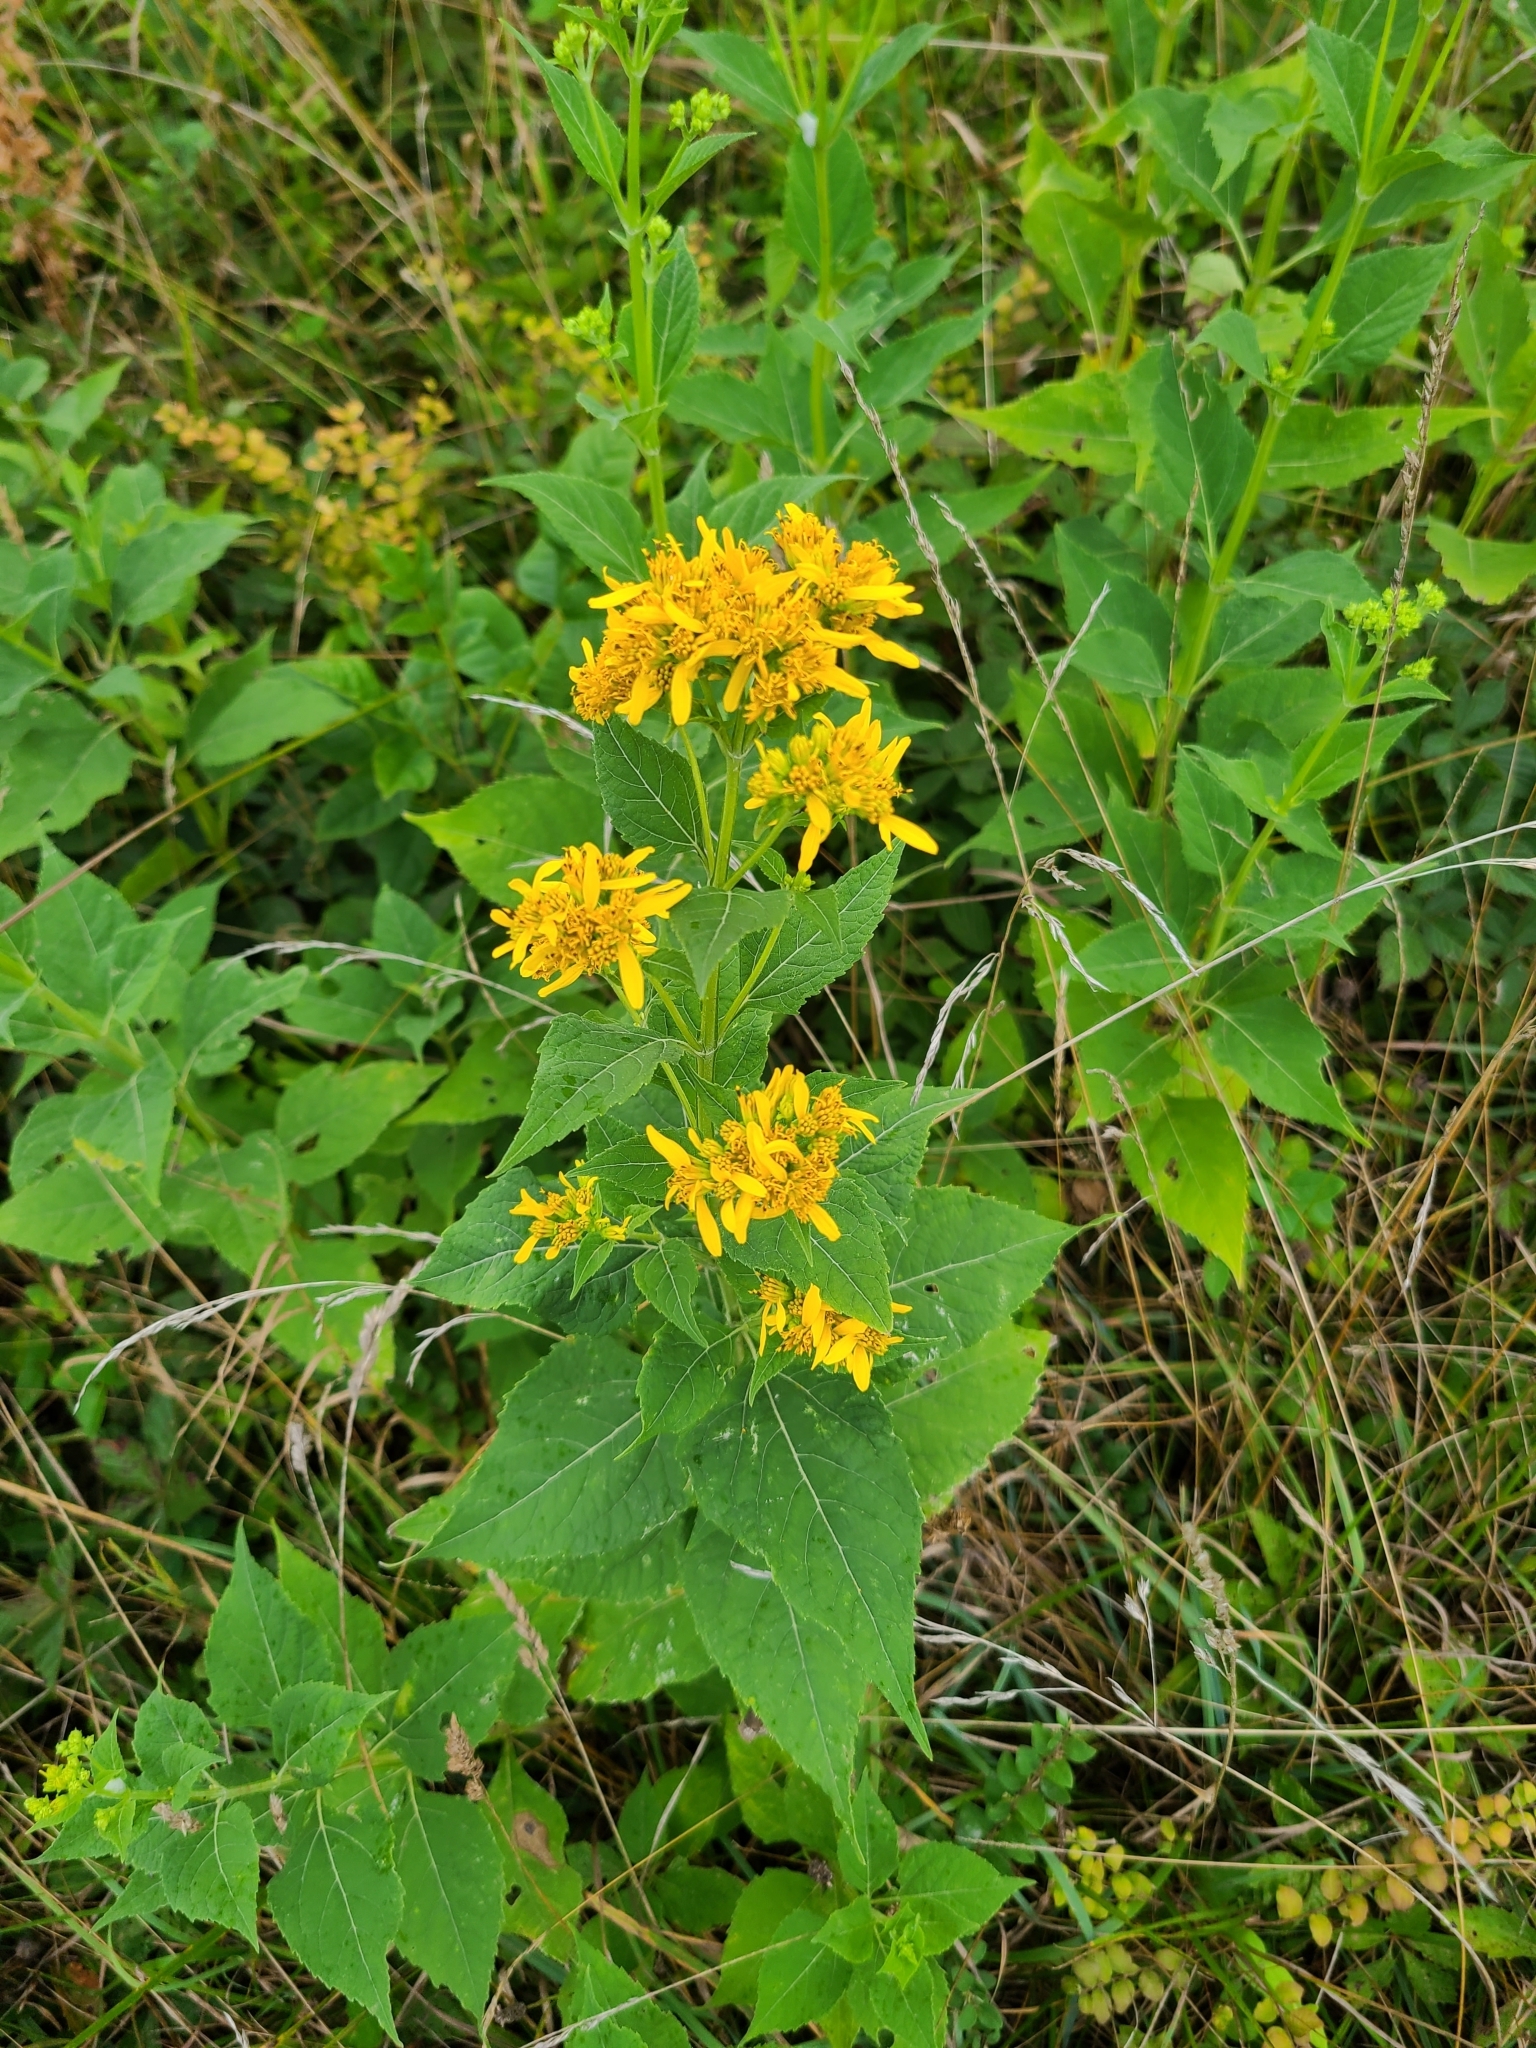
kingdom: Plantae
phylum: Tracheophyta
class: Magnoliopsida
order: Asterales
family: Asteraceae
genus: Verbesina
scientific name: Verbesina occidentalis
